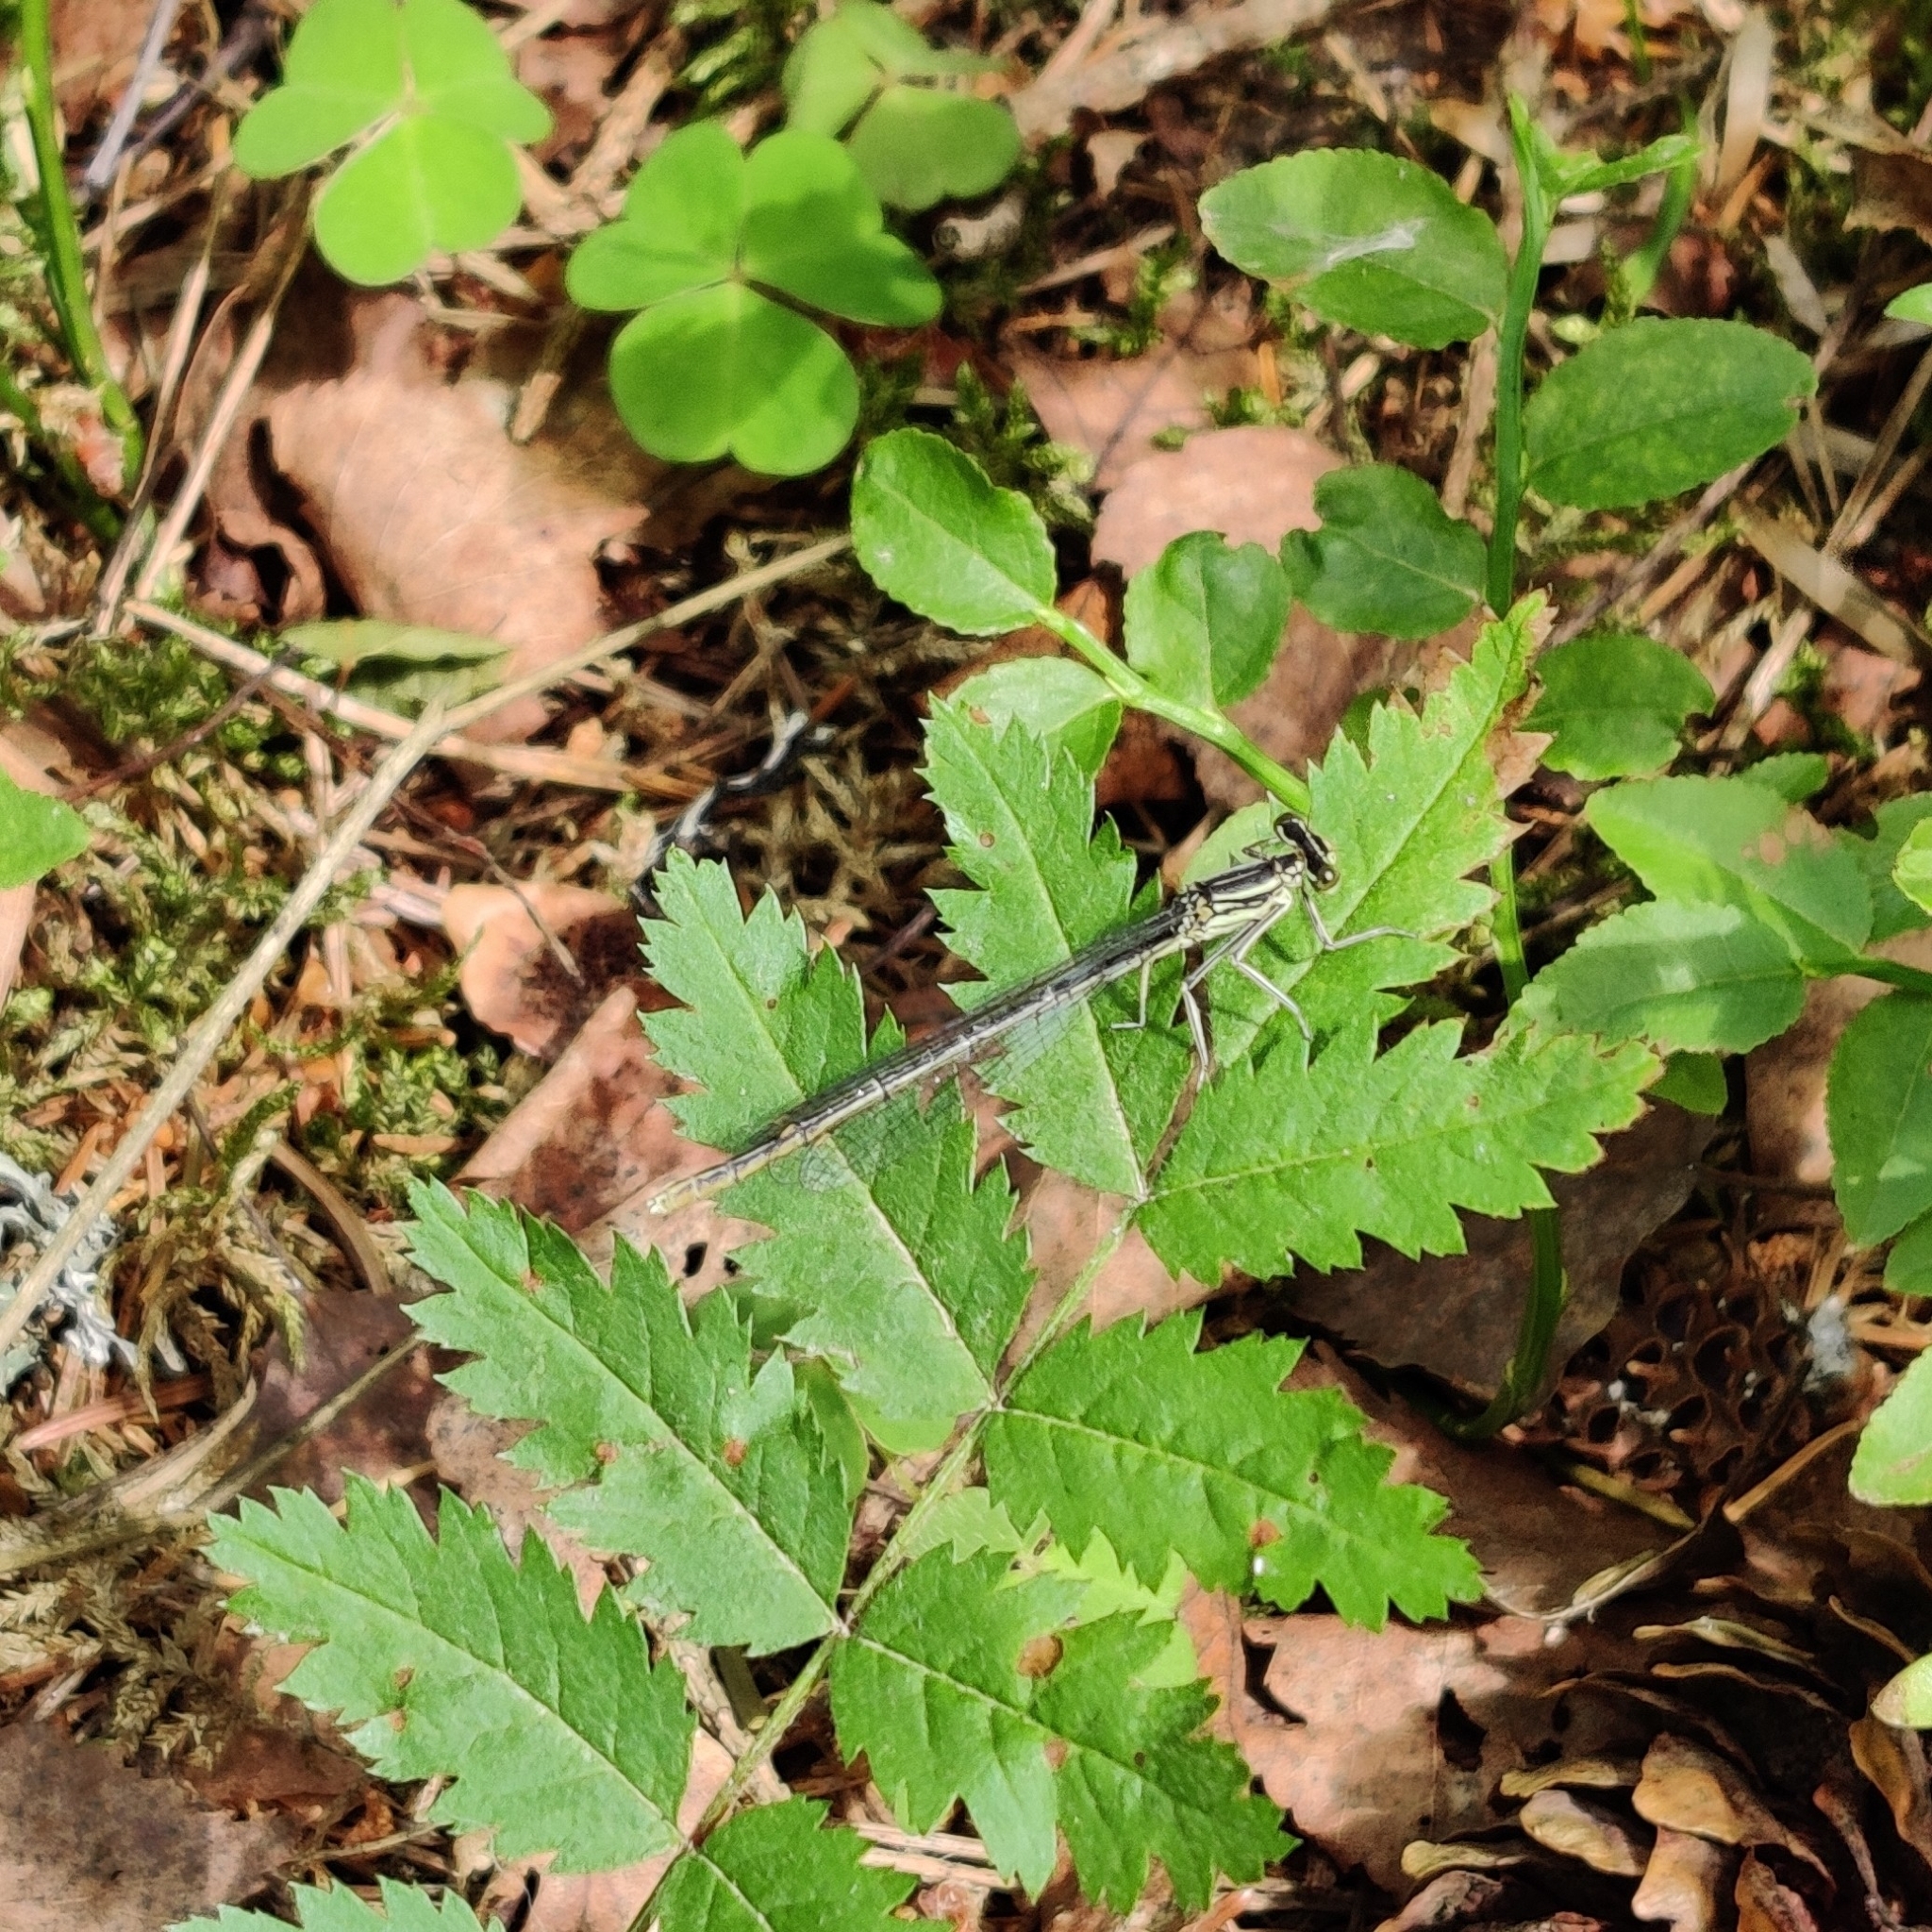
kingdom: Animalia
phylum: Arthropoda
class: Insecta
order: Odonata
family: Platycnemididae
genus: Platycnemis
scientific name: Platycnemis pennipes
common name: White-legged damselfly
